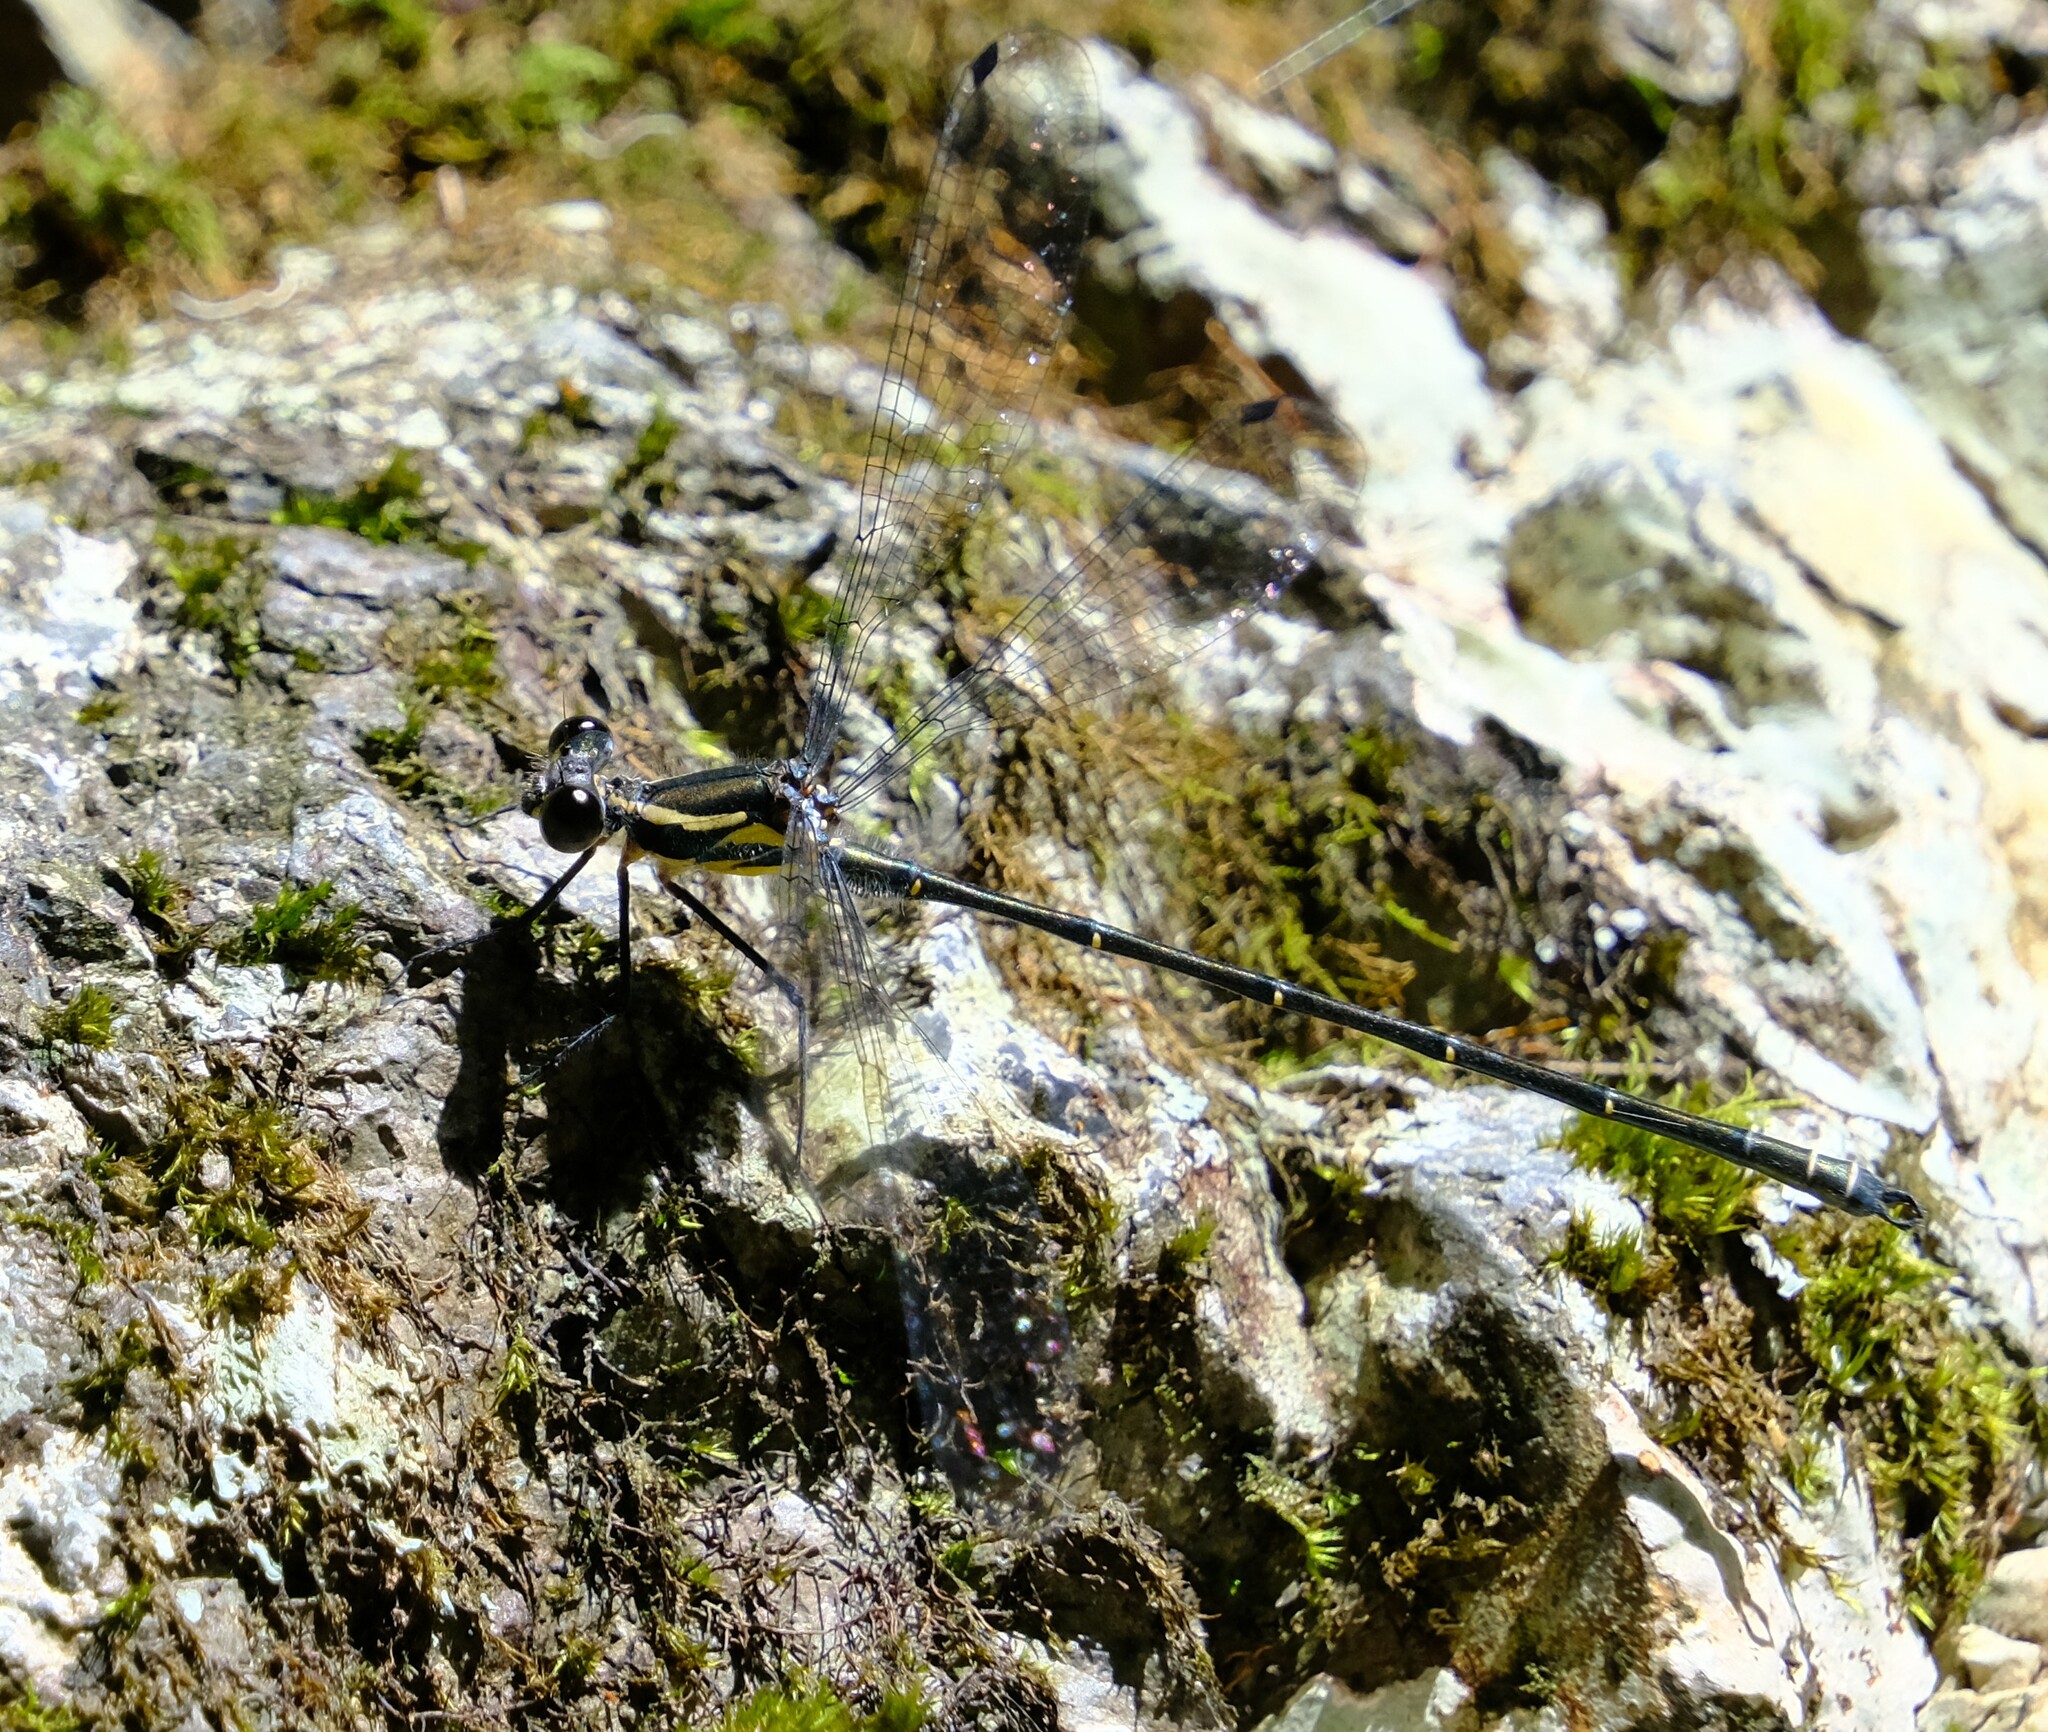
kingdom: Animalia
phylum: Arthropoda
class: Insecta
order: Odonata
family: Argiolestidae
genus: Austroargiolestes
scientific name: Austroargiolestes icteromelas
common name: Common flatwing
